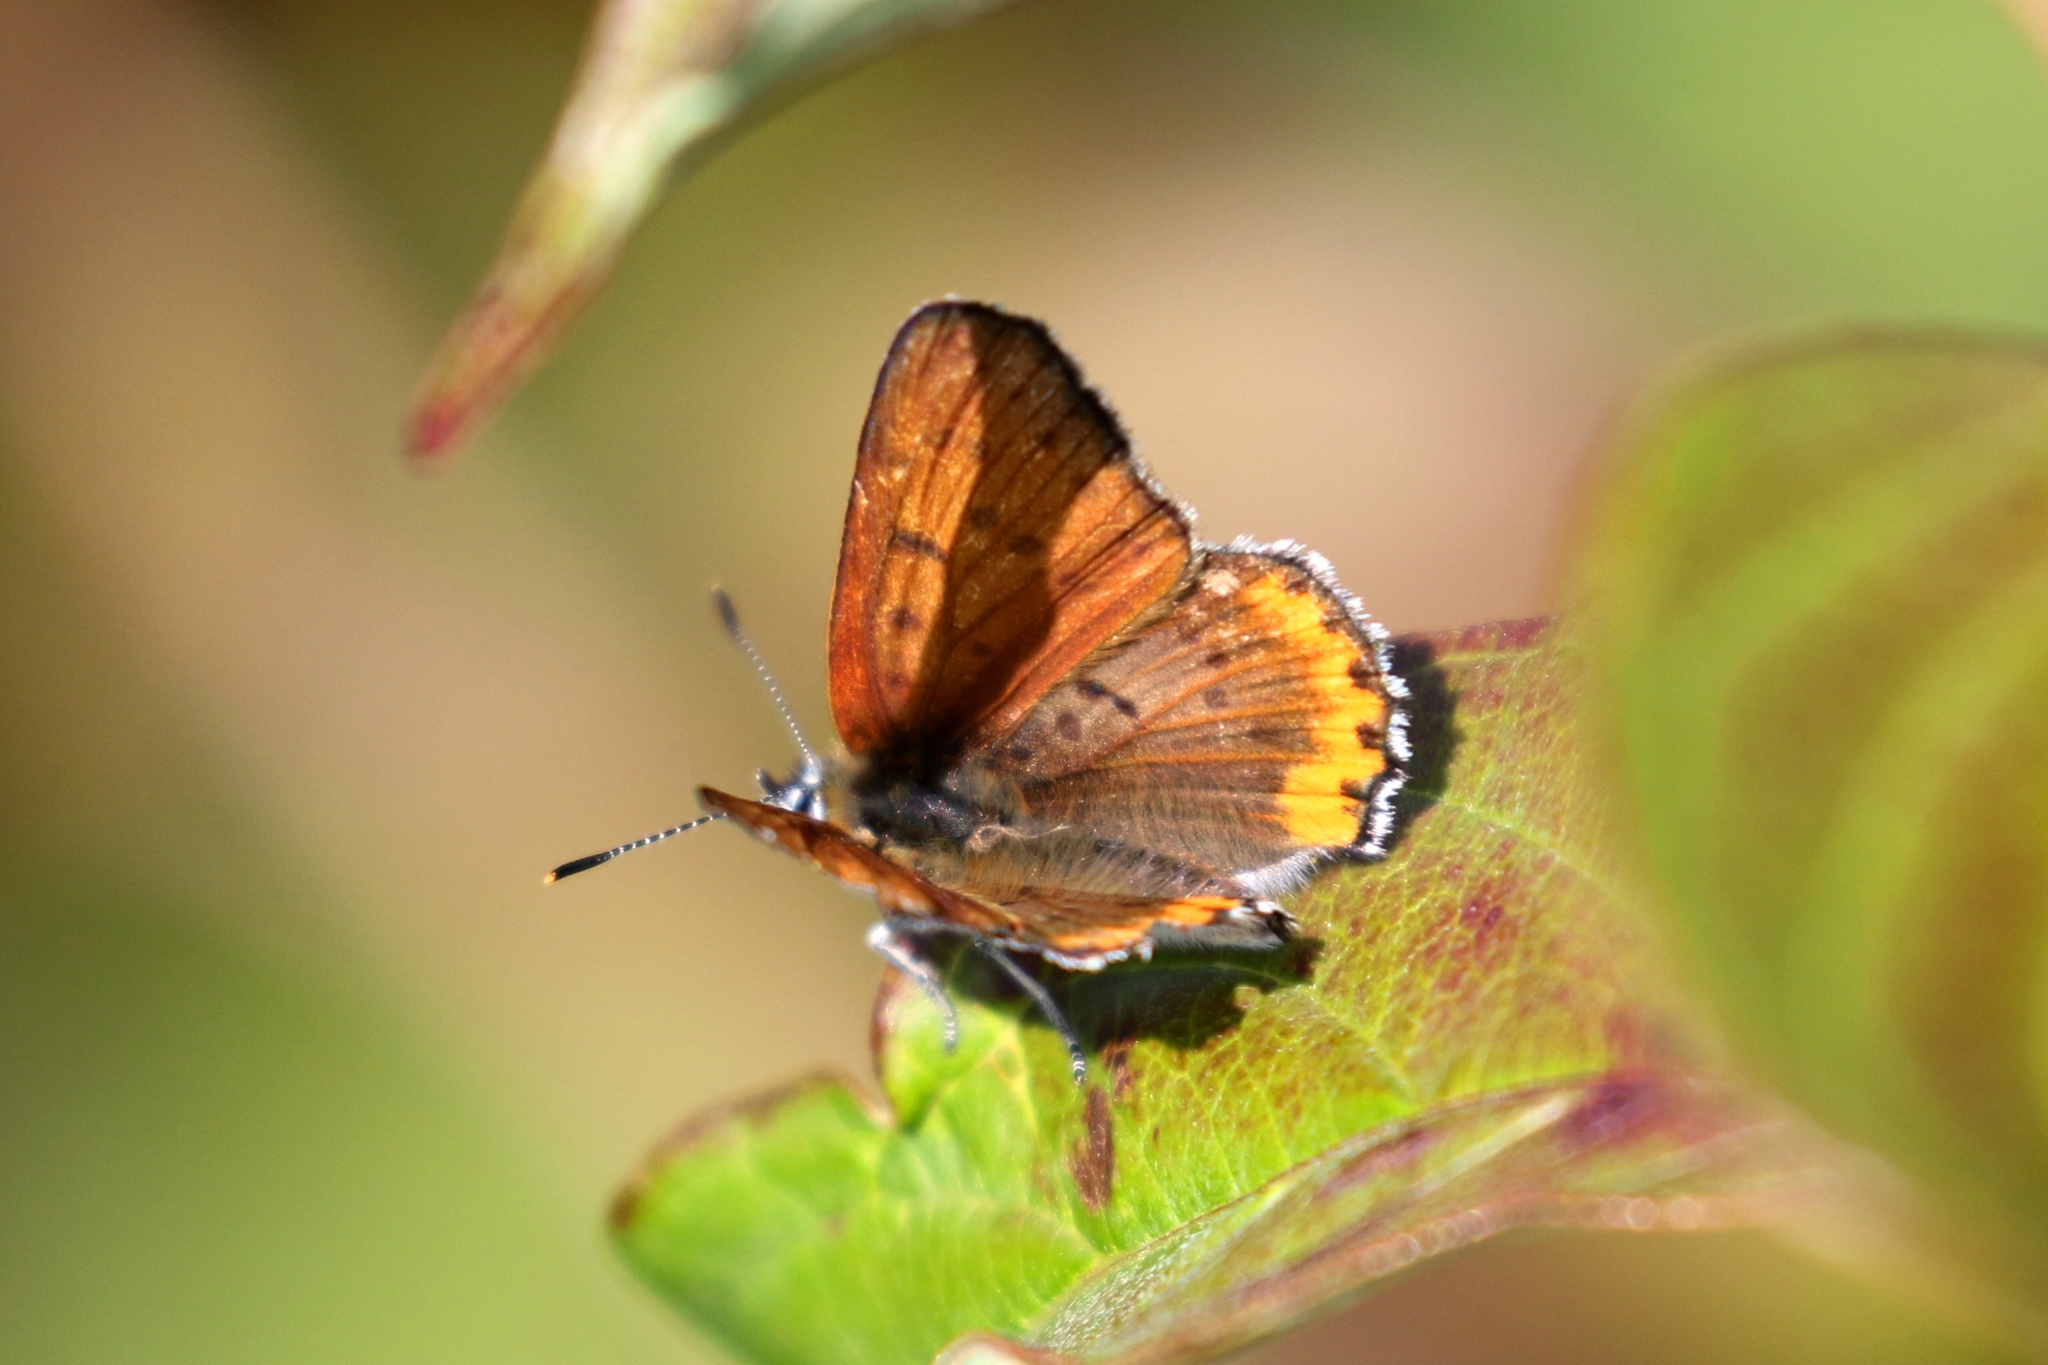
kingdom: Animalia
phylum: Arthropoda
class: Insecta
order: Lepidoptera
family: Lycaenidae
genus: Tharsalea
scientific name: Tharsalea hyllus
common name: Bronze copper
